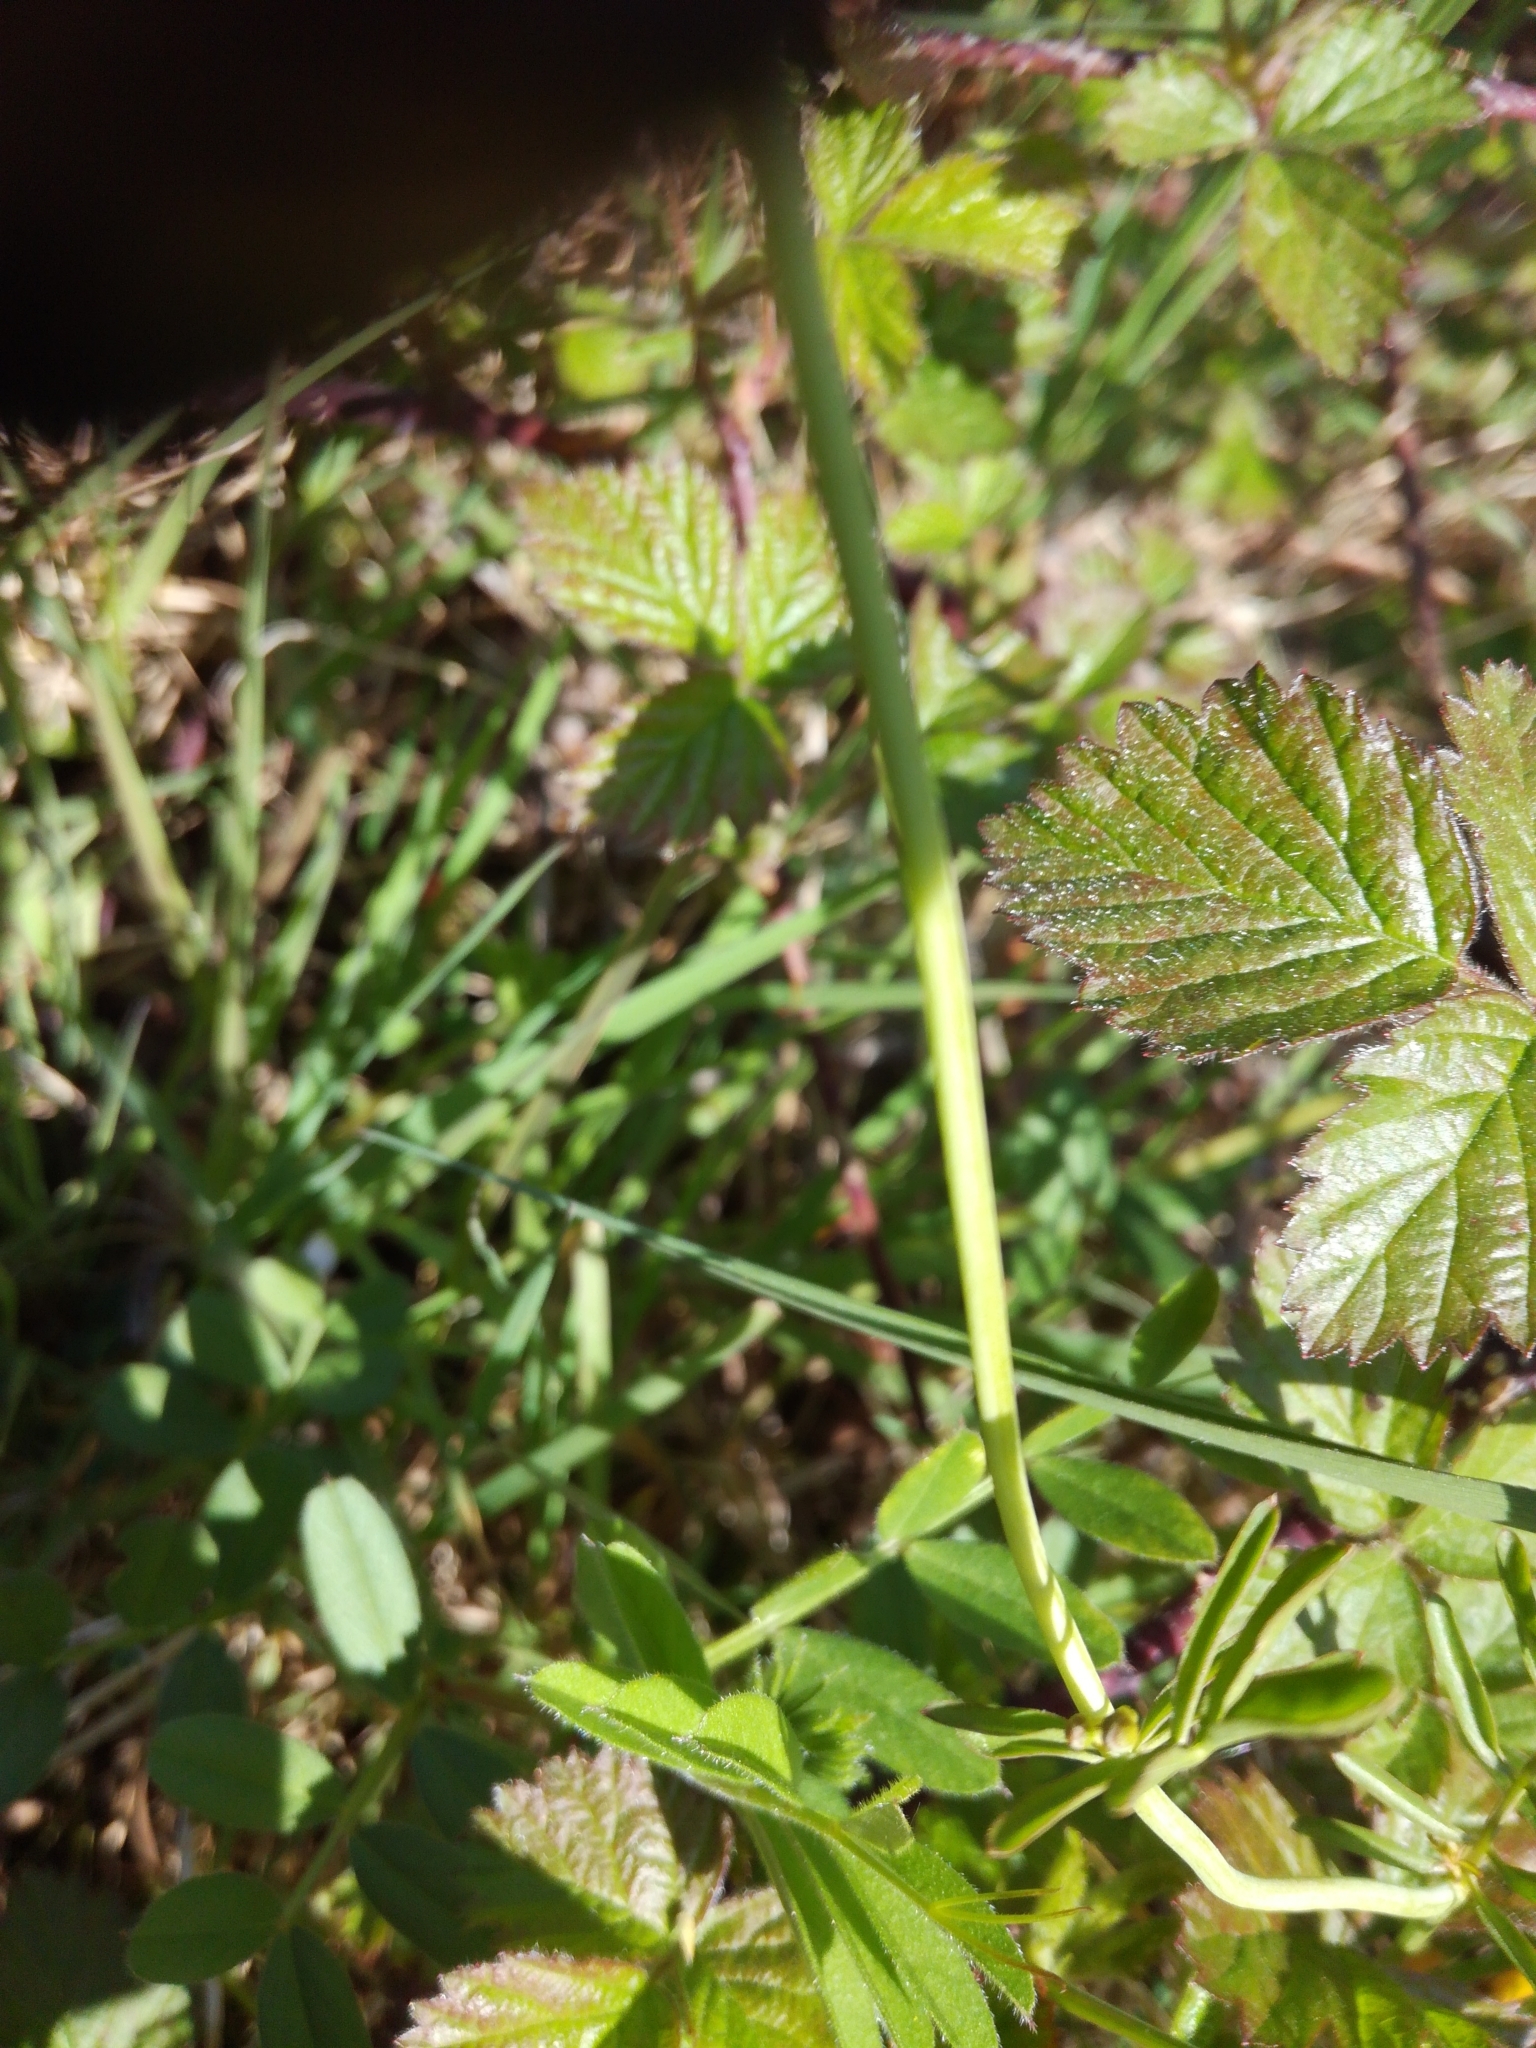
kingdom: Plantae
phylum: Tracheophyta
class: Magnoliopsida
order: Brassicales
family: Brassicaceae
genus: Cardamine
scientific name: Cardamine pratensis
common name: Cuckoo flower
